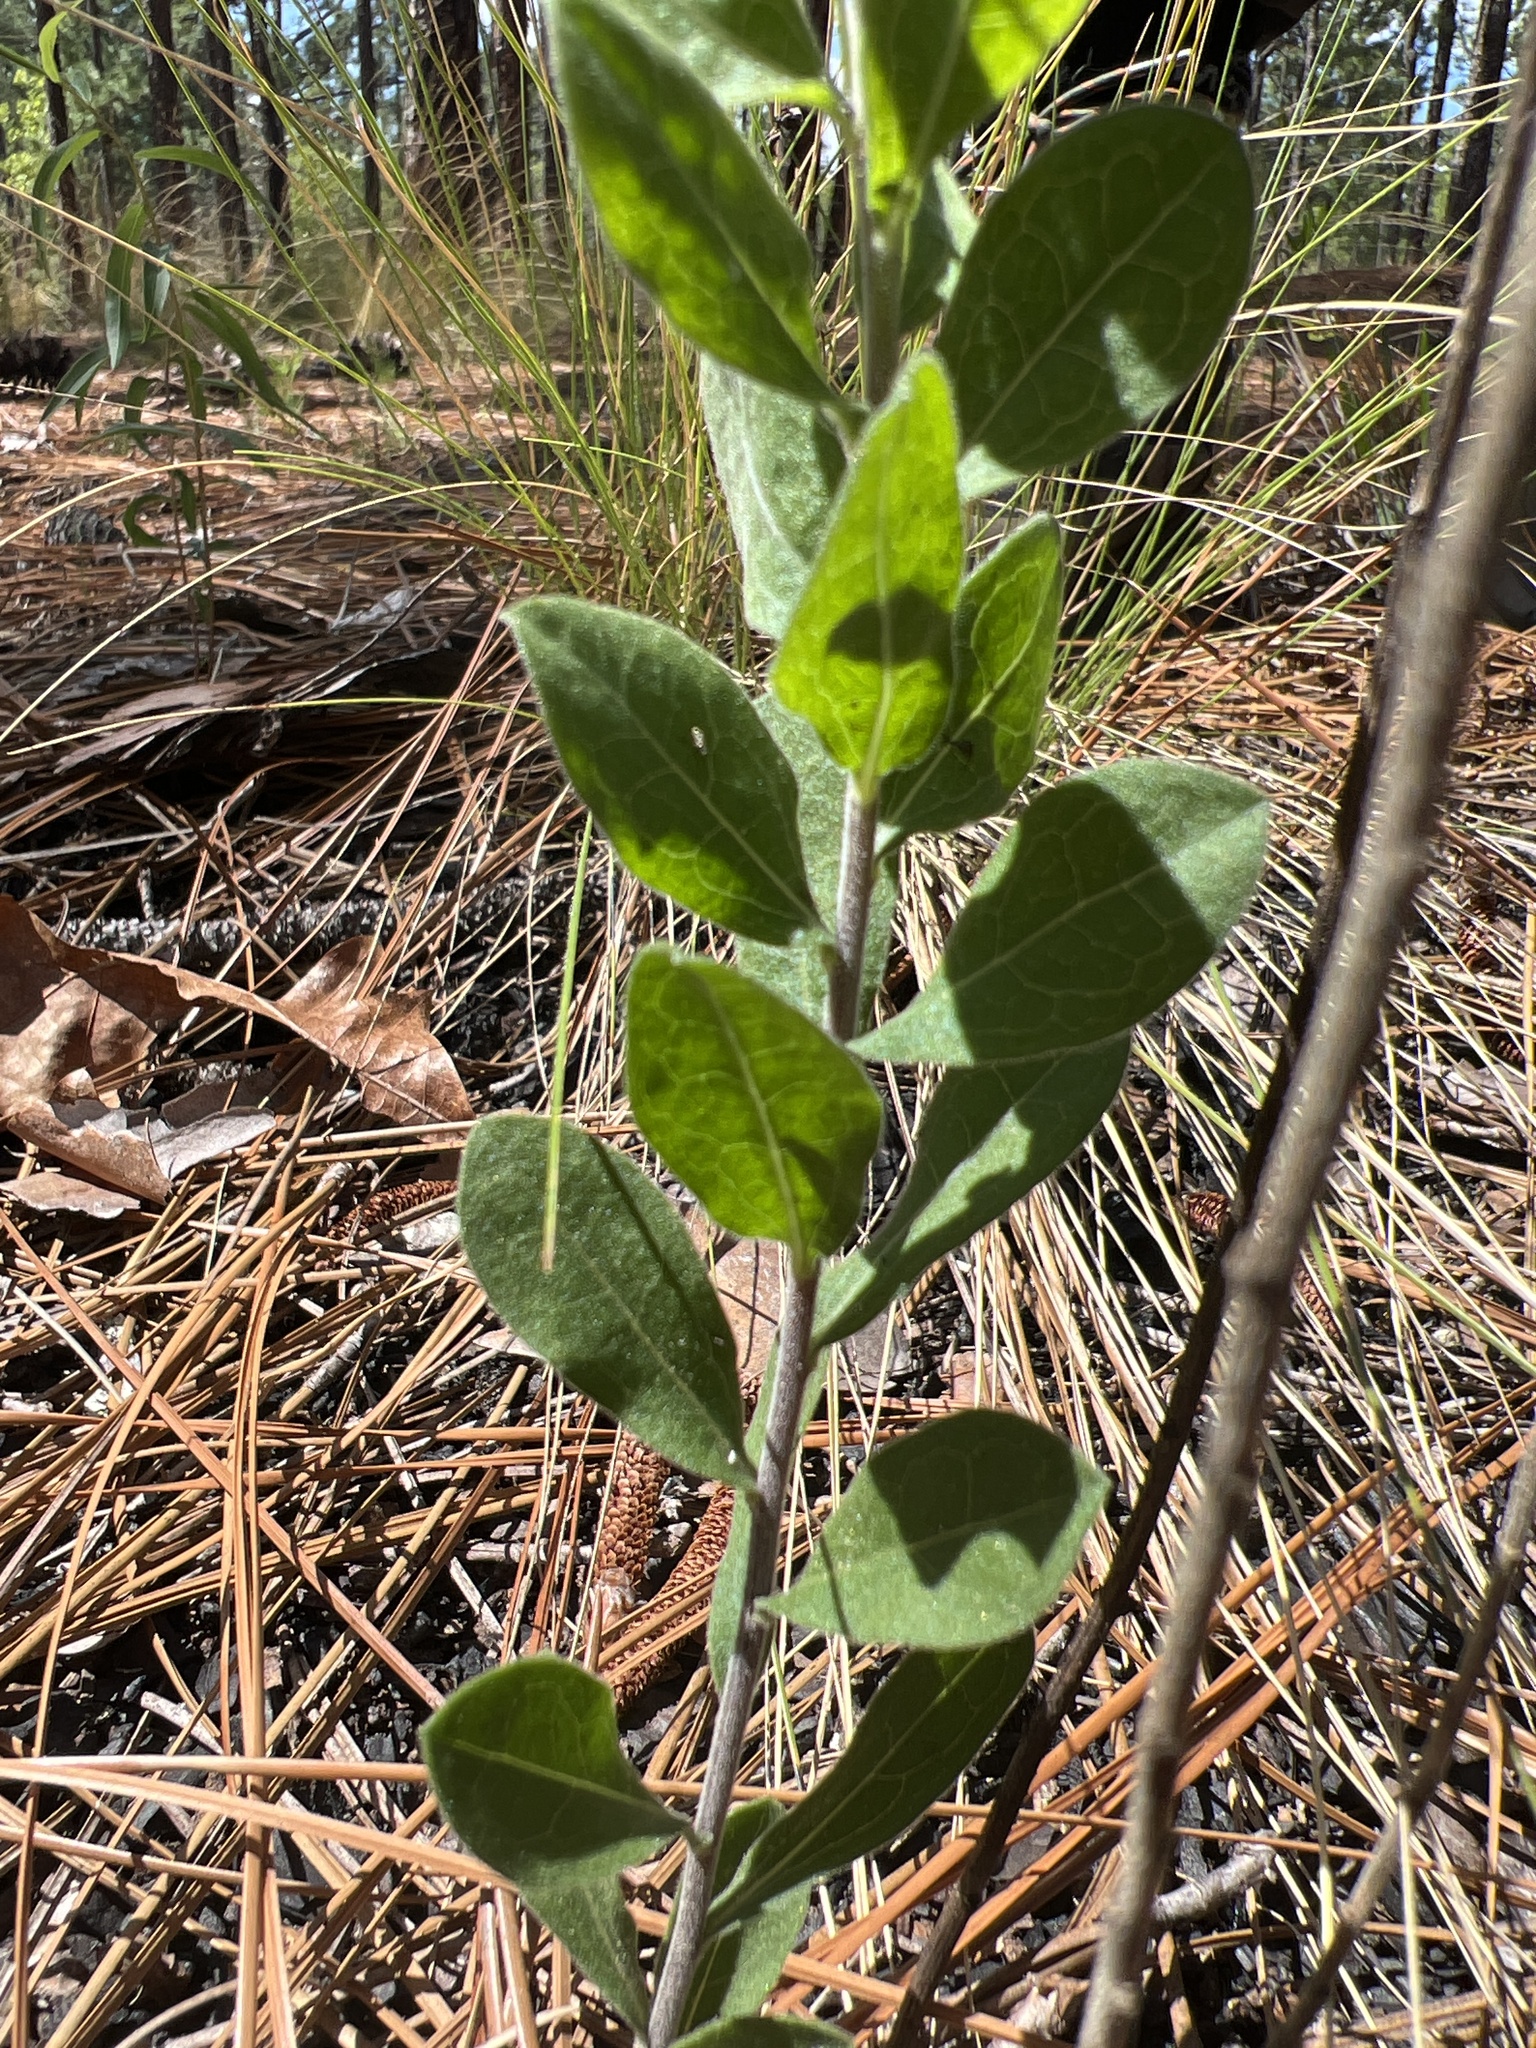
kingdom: Plantae
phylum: Tracheophyta
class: Magnoliopsida
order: Asterales
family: Asteraceae
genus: Sericocarpus
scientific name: Sericocarpus tortifolius
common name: Dixie aster
